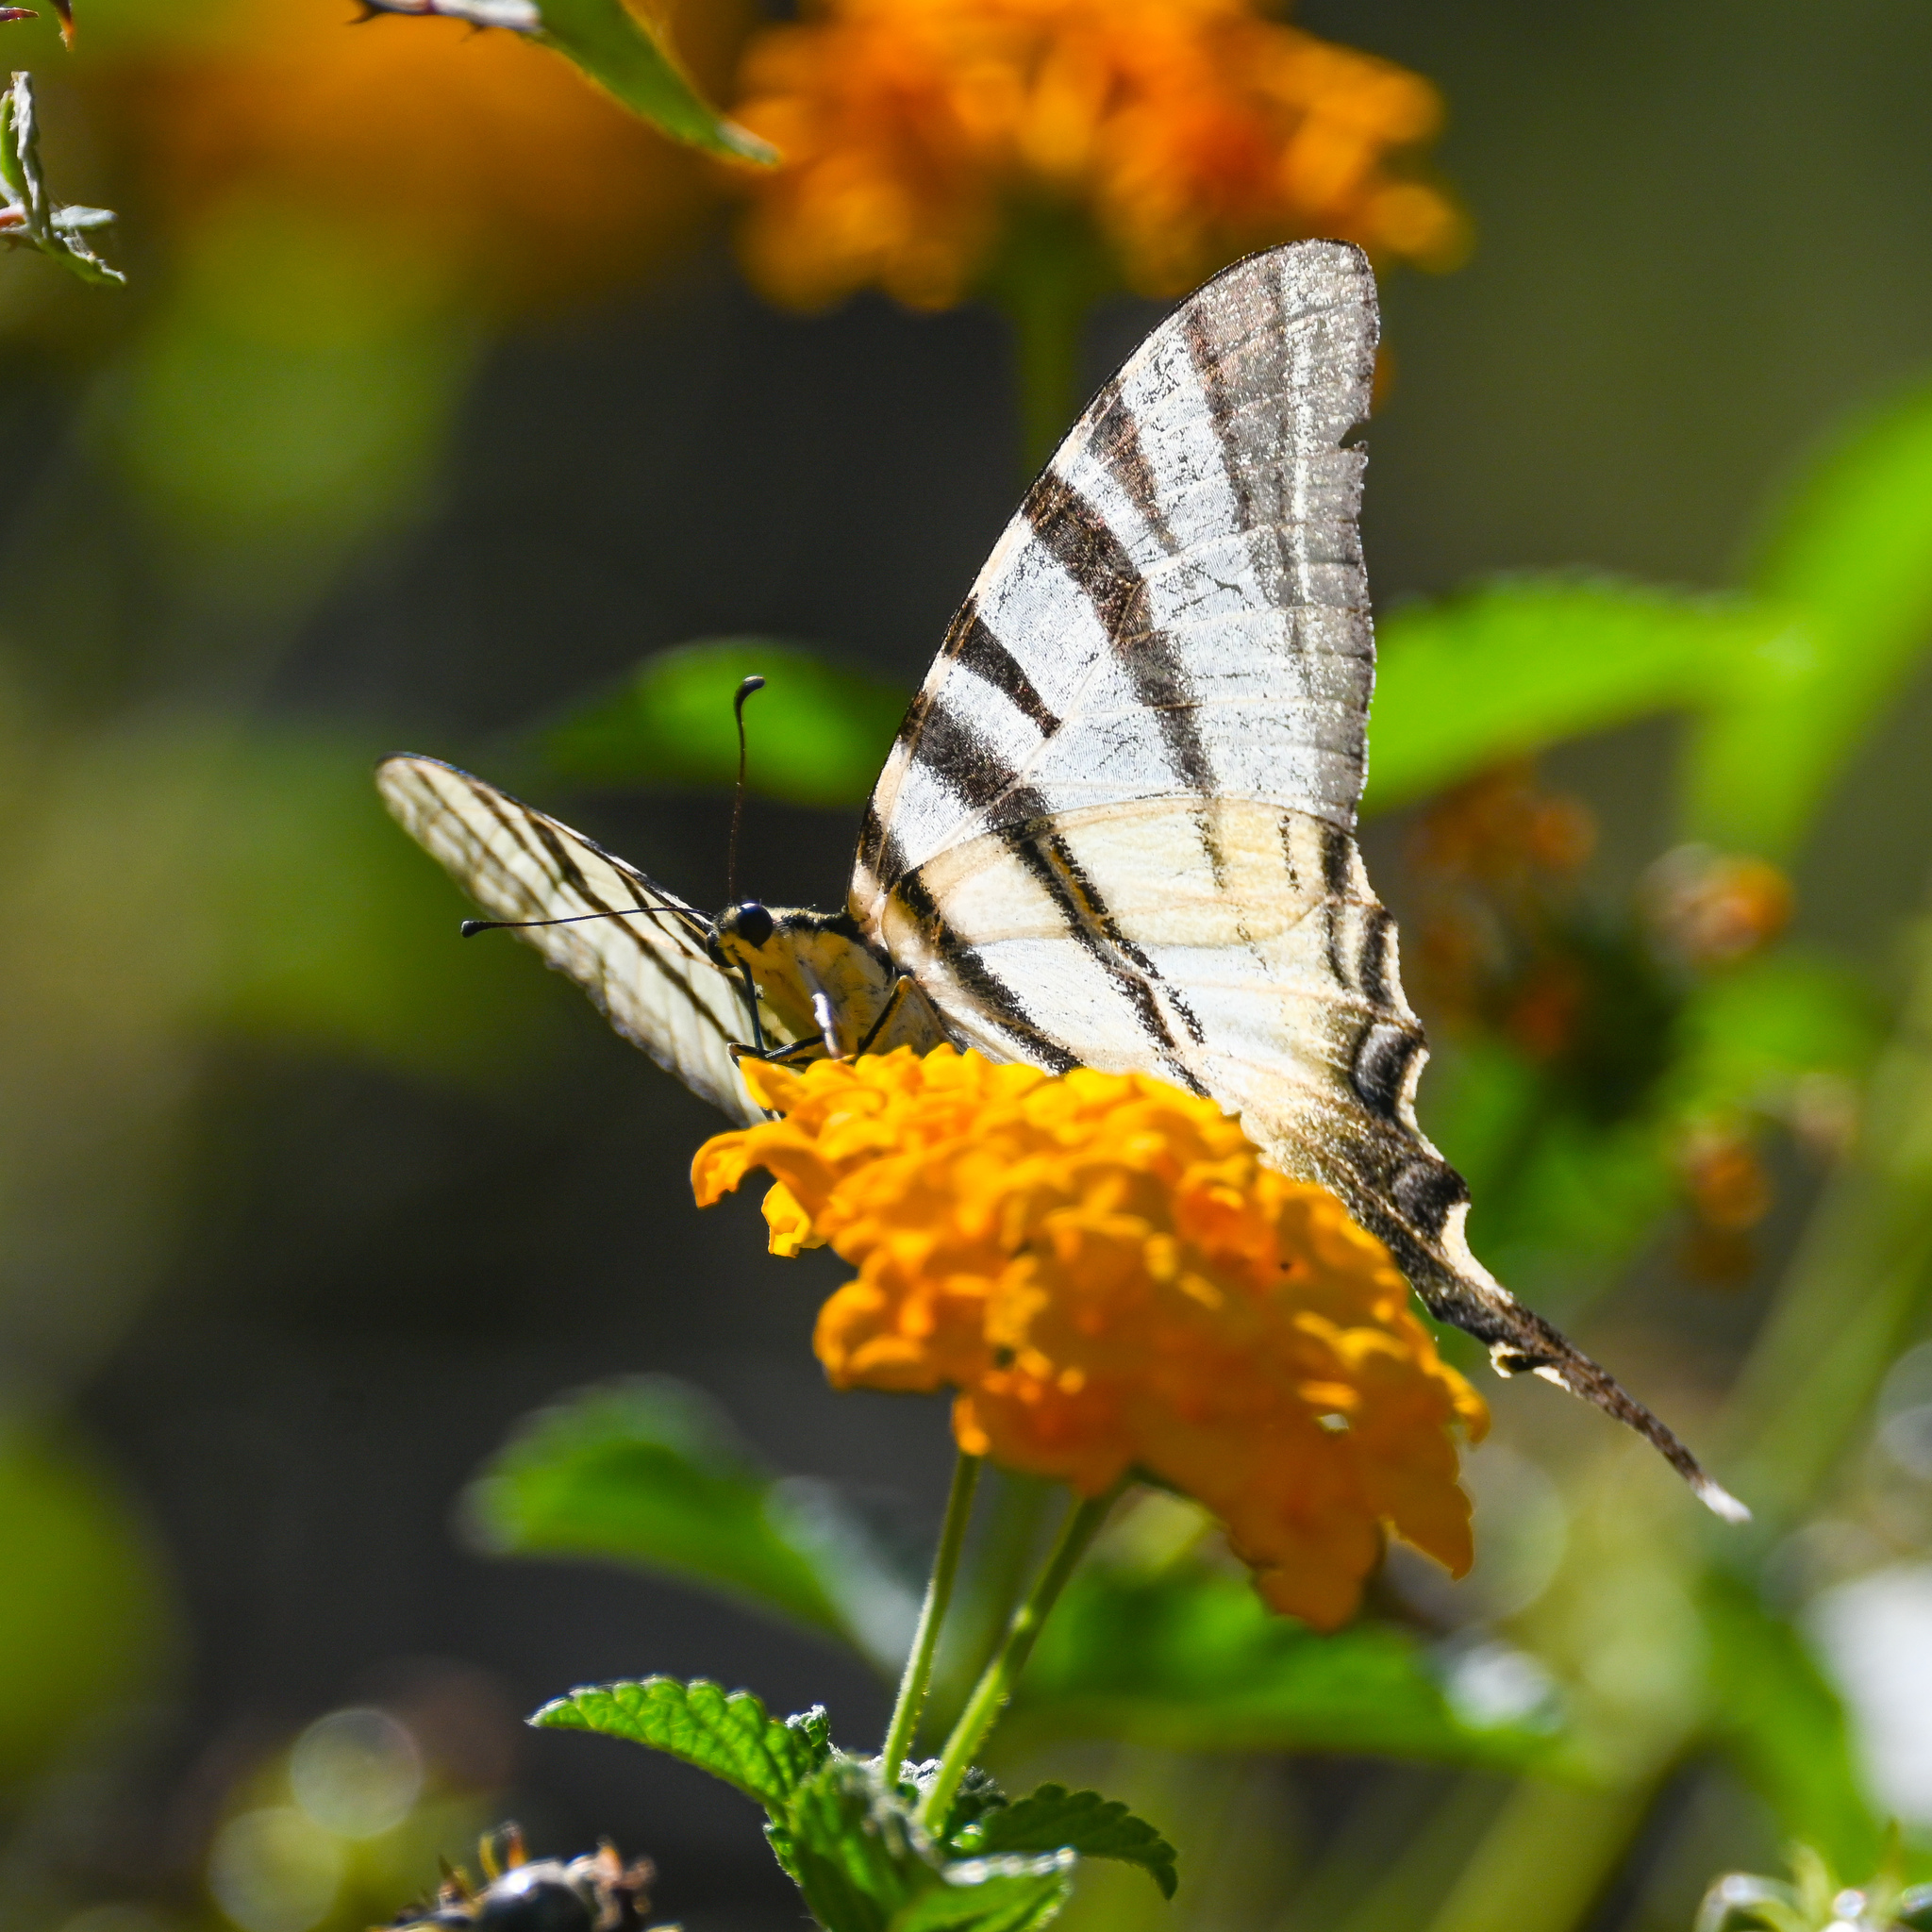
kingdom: Animalia
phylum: Arthropoda
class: Insecta
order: Lepidoptera
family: Papilionidae
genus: Iphiclides
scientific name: Iphiclides podalirius
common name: Scarce swallowtail
